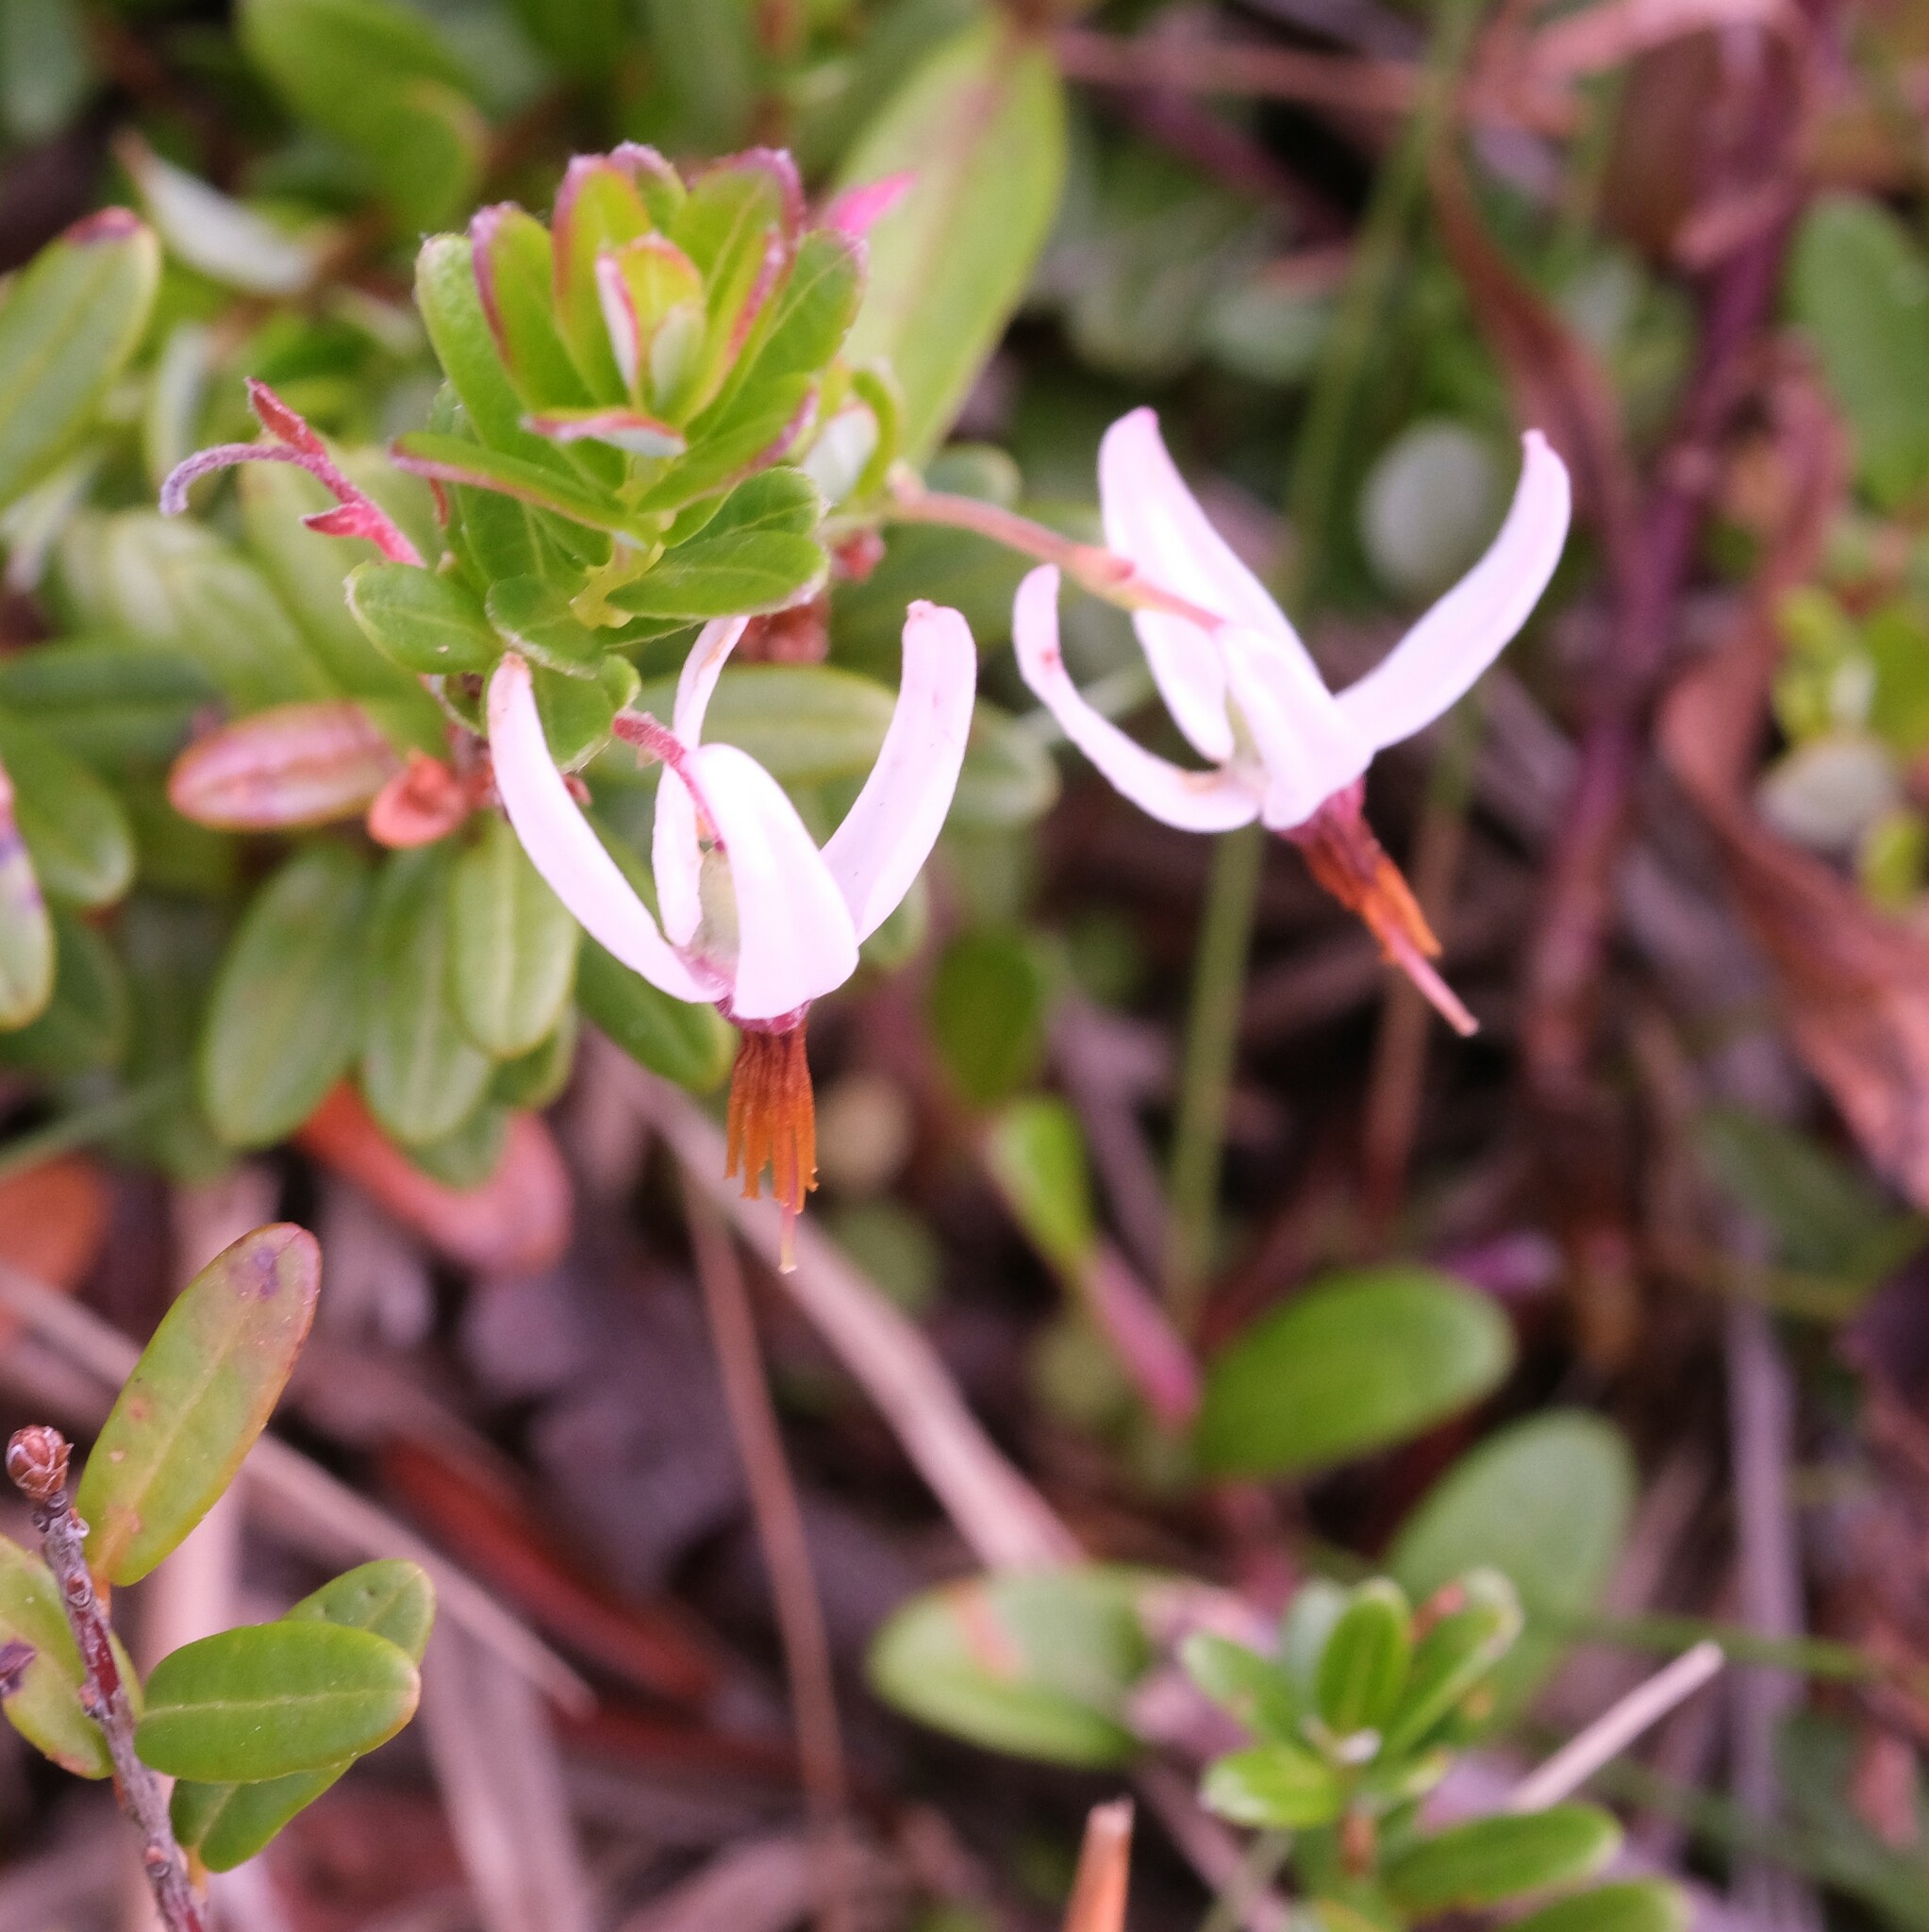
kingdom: Plantae
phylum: Tracheophyta
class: Magnoliopsida
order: Ericales
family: Ericaceae
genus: Vaccinium
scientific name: Vaccinium macrocarpon
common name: American cranberry
